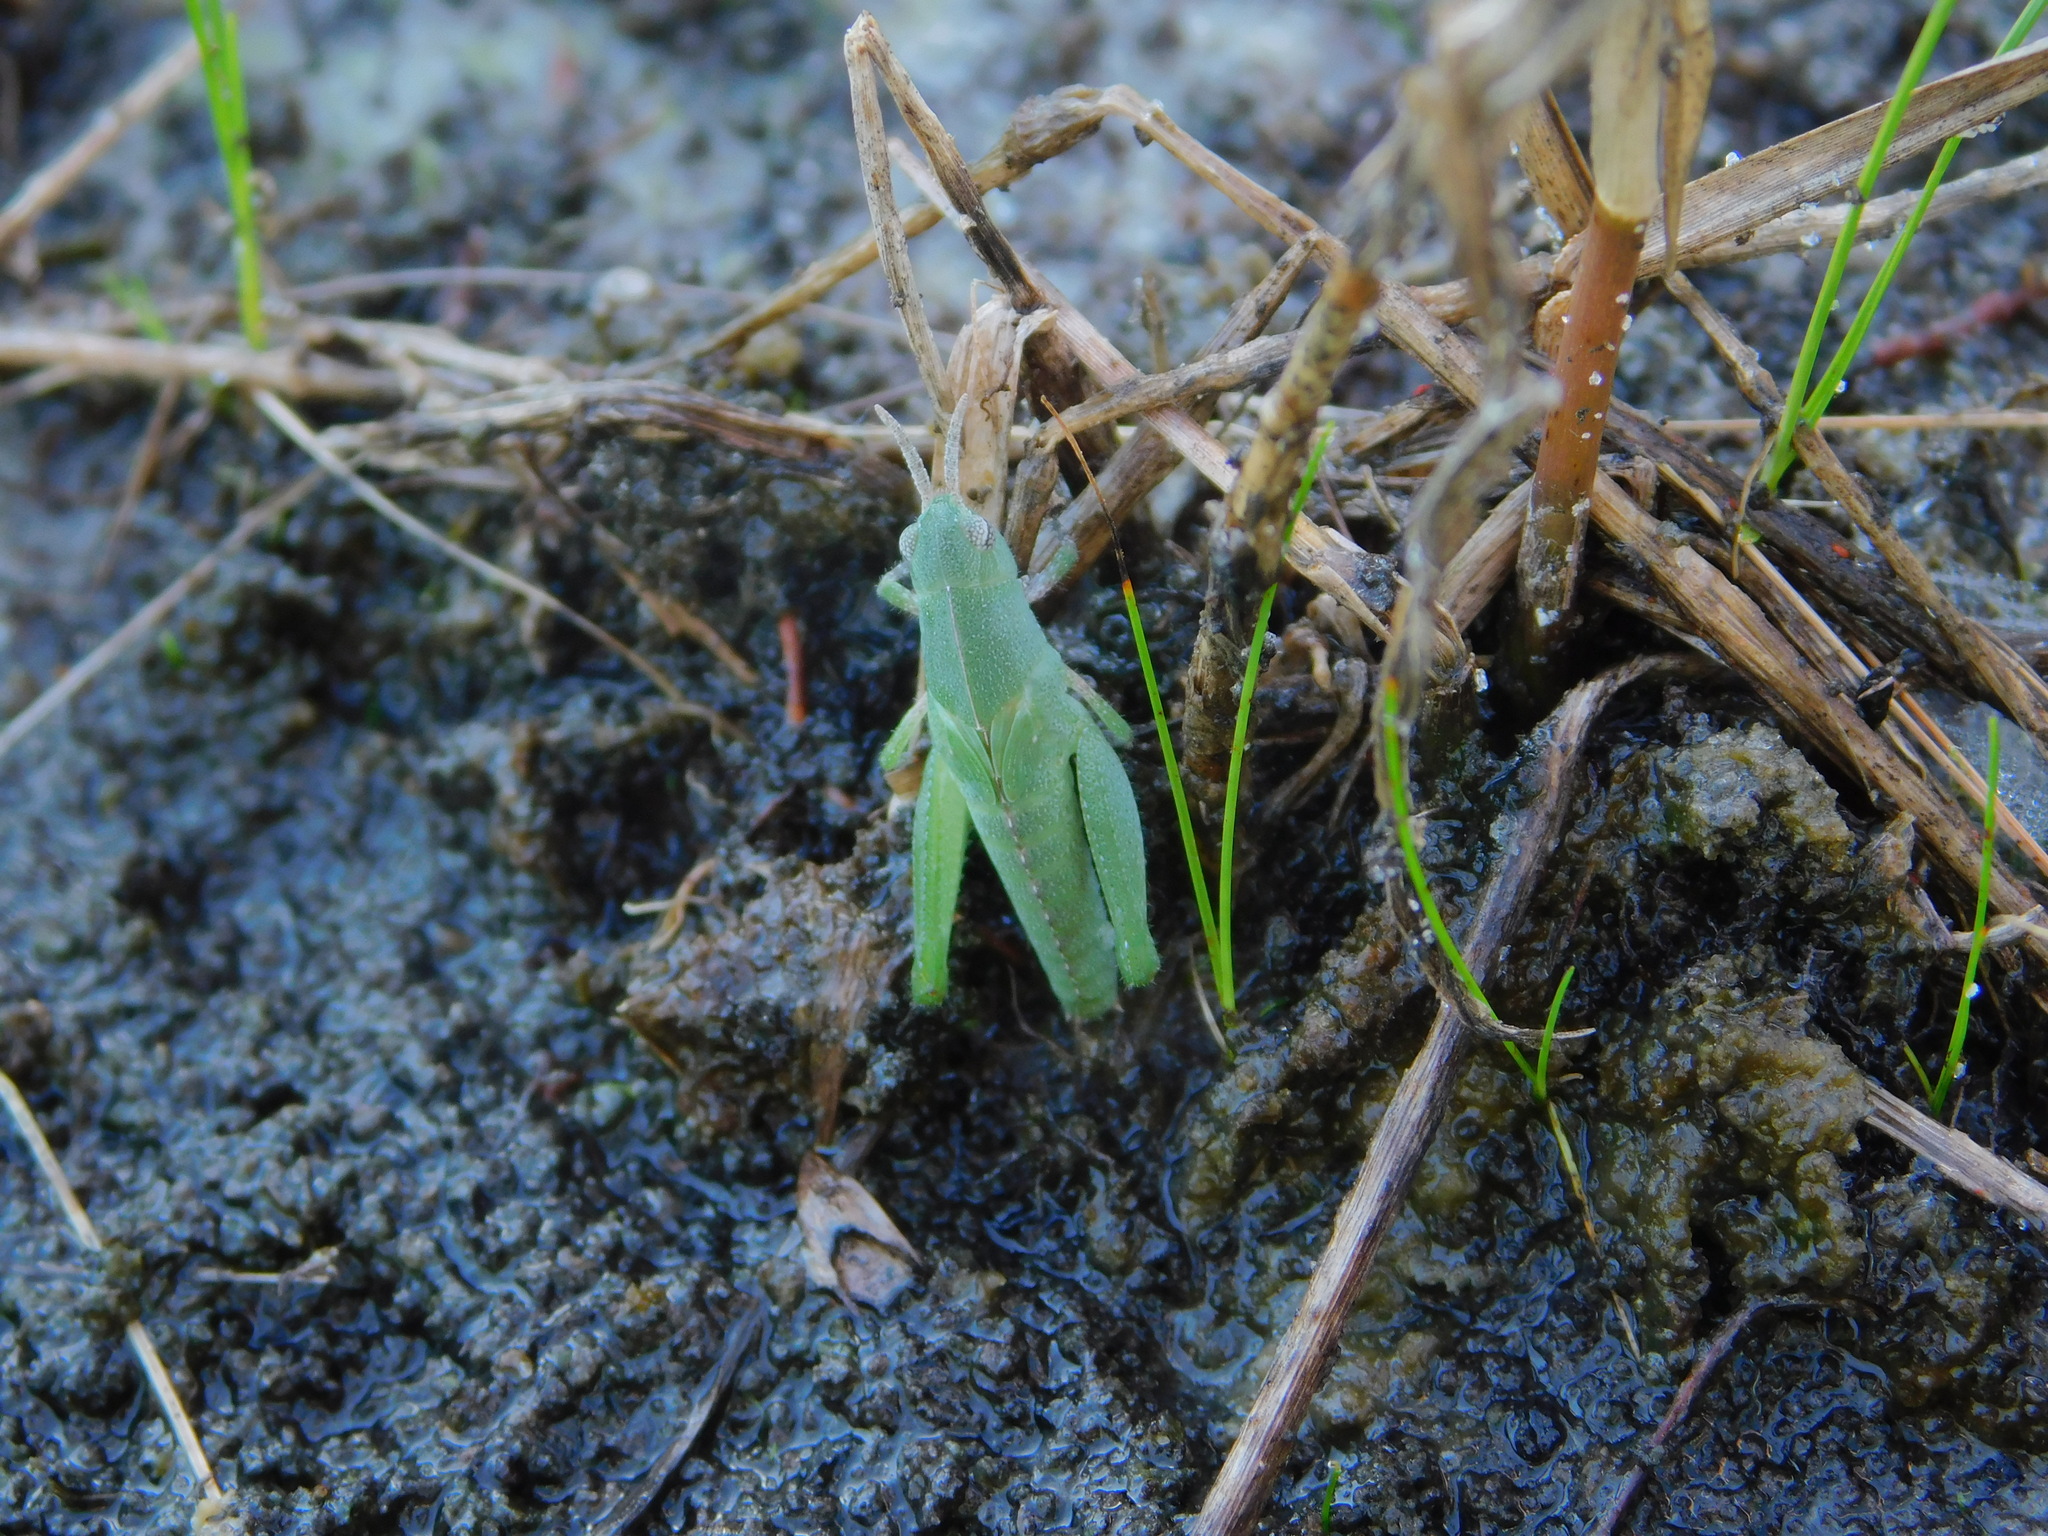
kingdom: Animalia
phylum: Arthropoda
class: Insecta
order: Orthoptera
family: Acrididae
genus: Chortophaga
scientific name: Chortophaga australior
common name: Southern green-striped grasshopper
